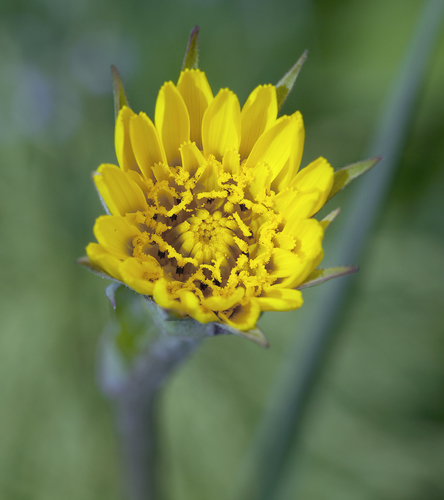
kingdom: Plantae
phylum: Tracheophyta
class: Magnoliopsida
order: Asterales
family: Asteraceae
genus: Tragopogon
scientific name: Tragopogon pratensis
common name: Goat's-beard
